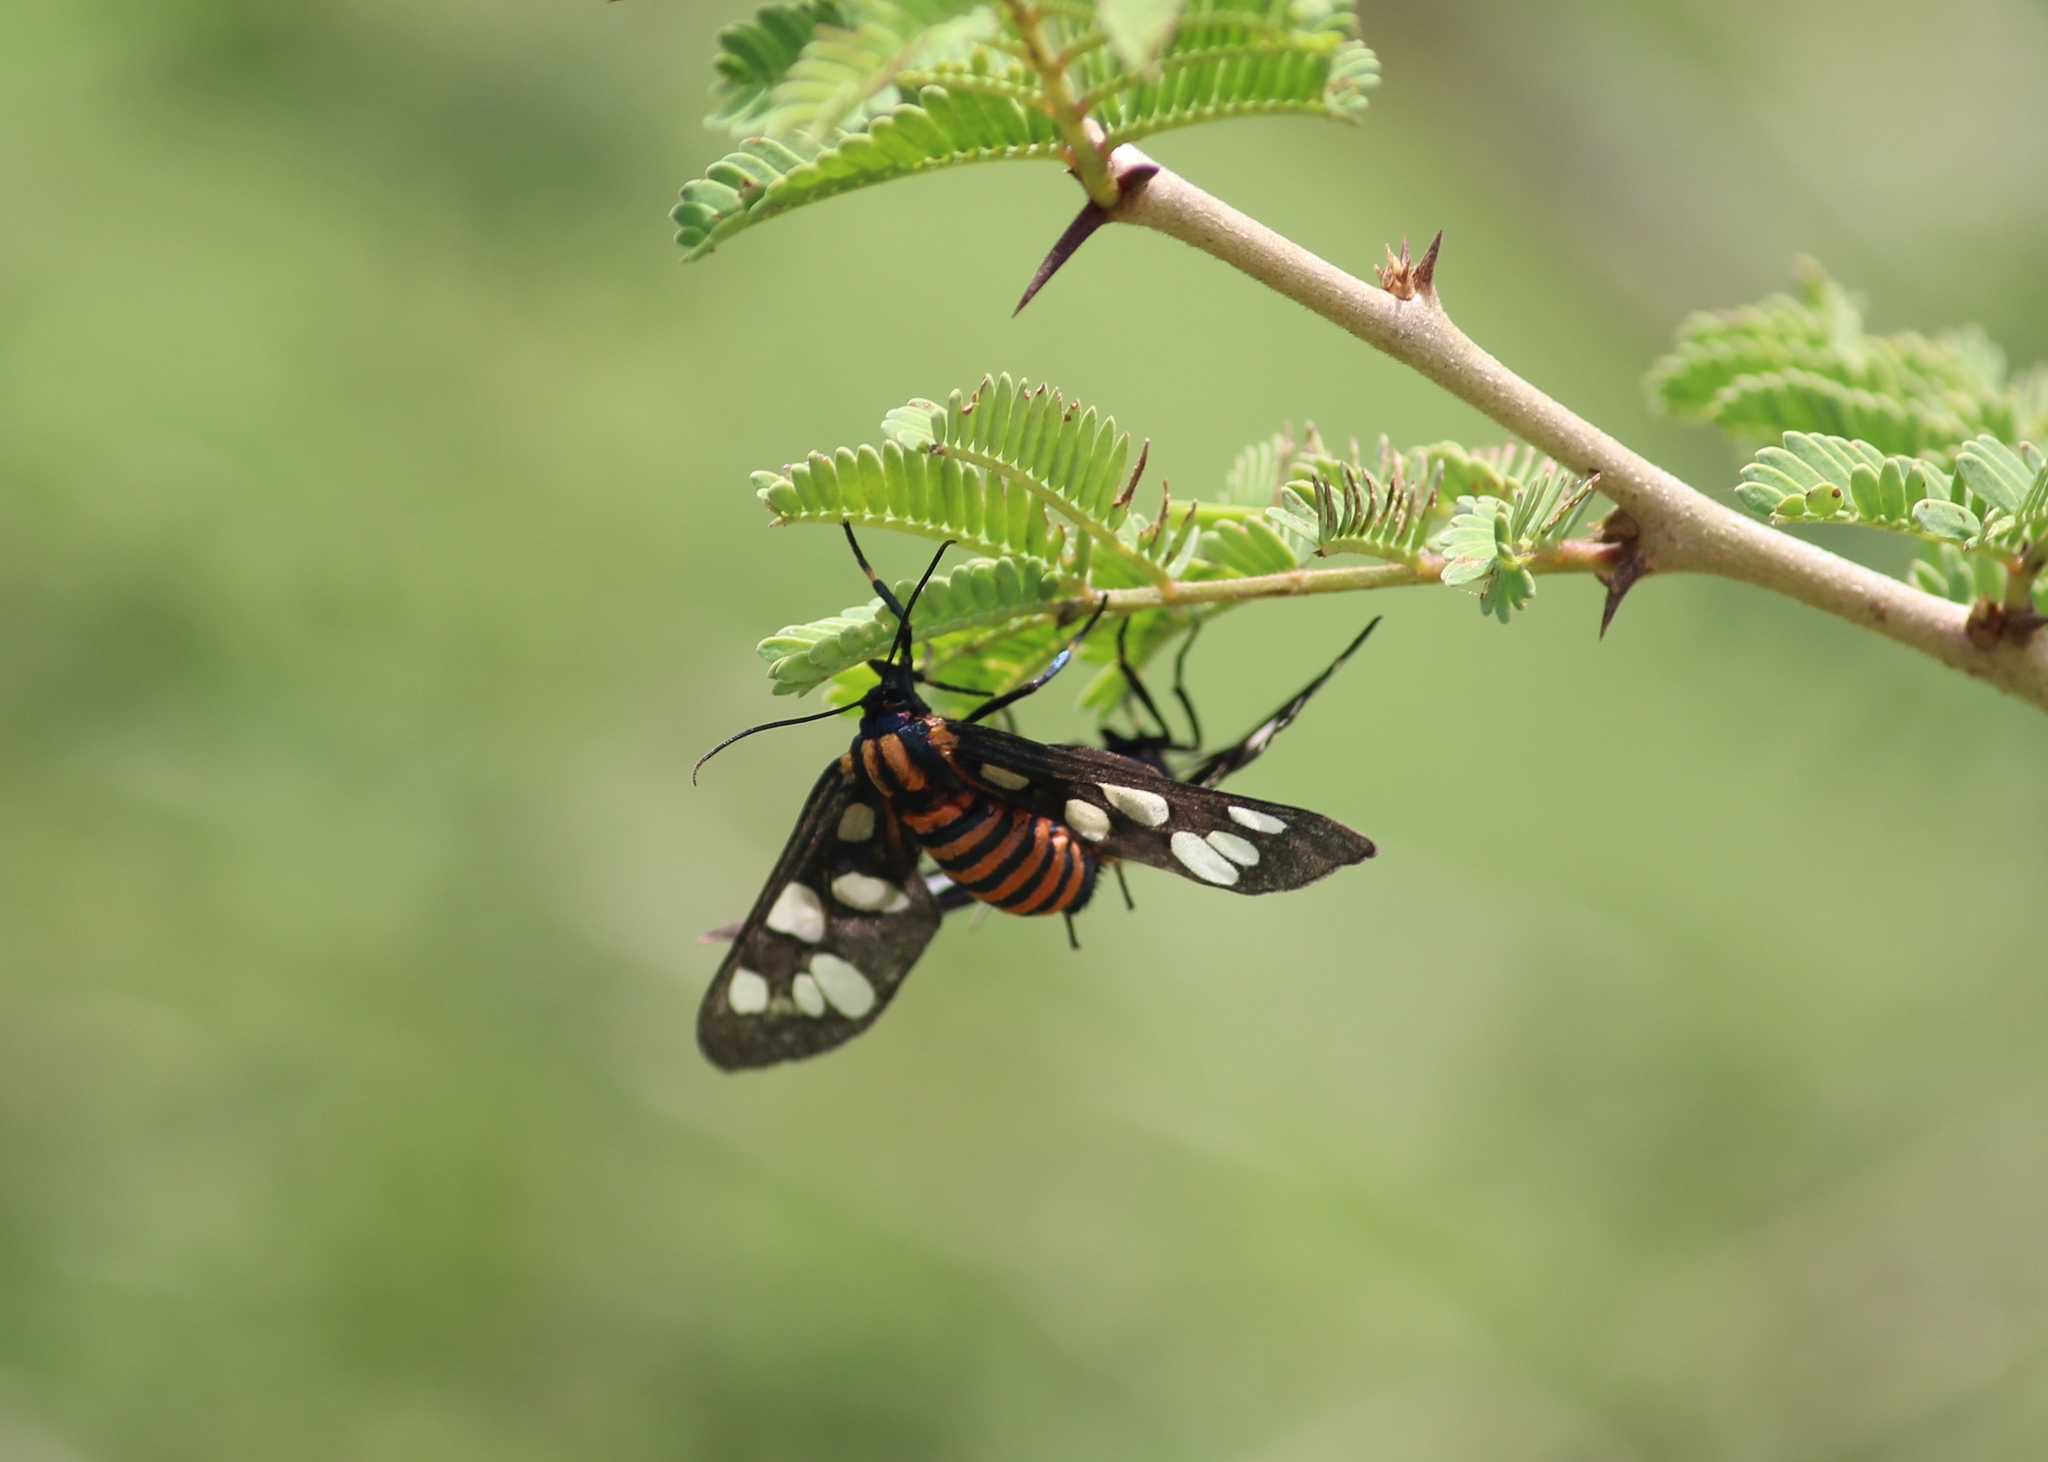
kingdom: Animalia
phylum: Arthropoda
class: Insecta
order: Lepidoptera
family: Erebidae
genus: Amata
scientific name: Amata passalis
